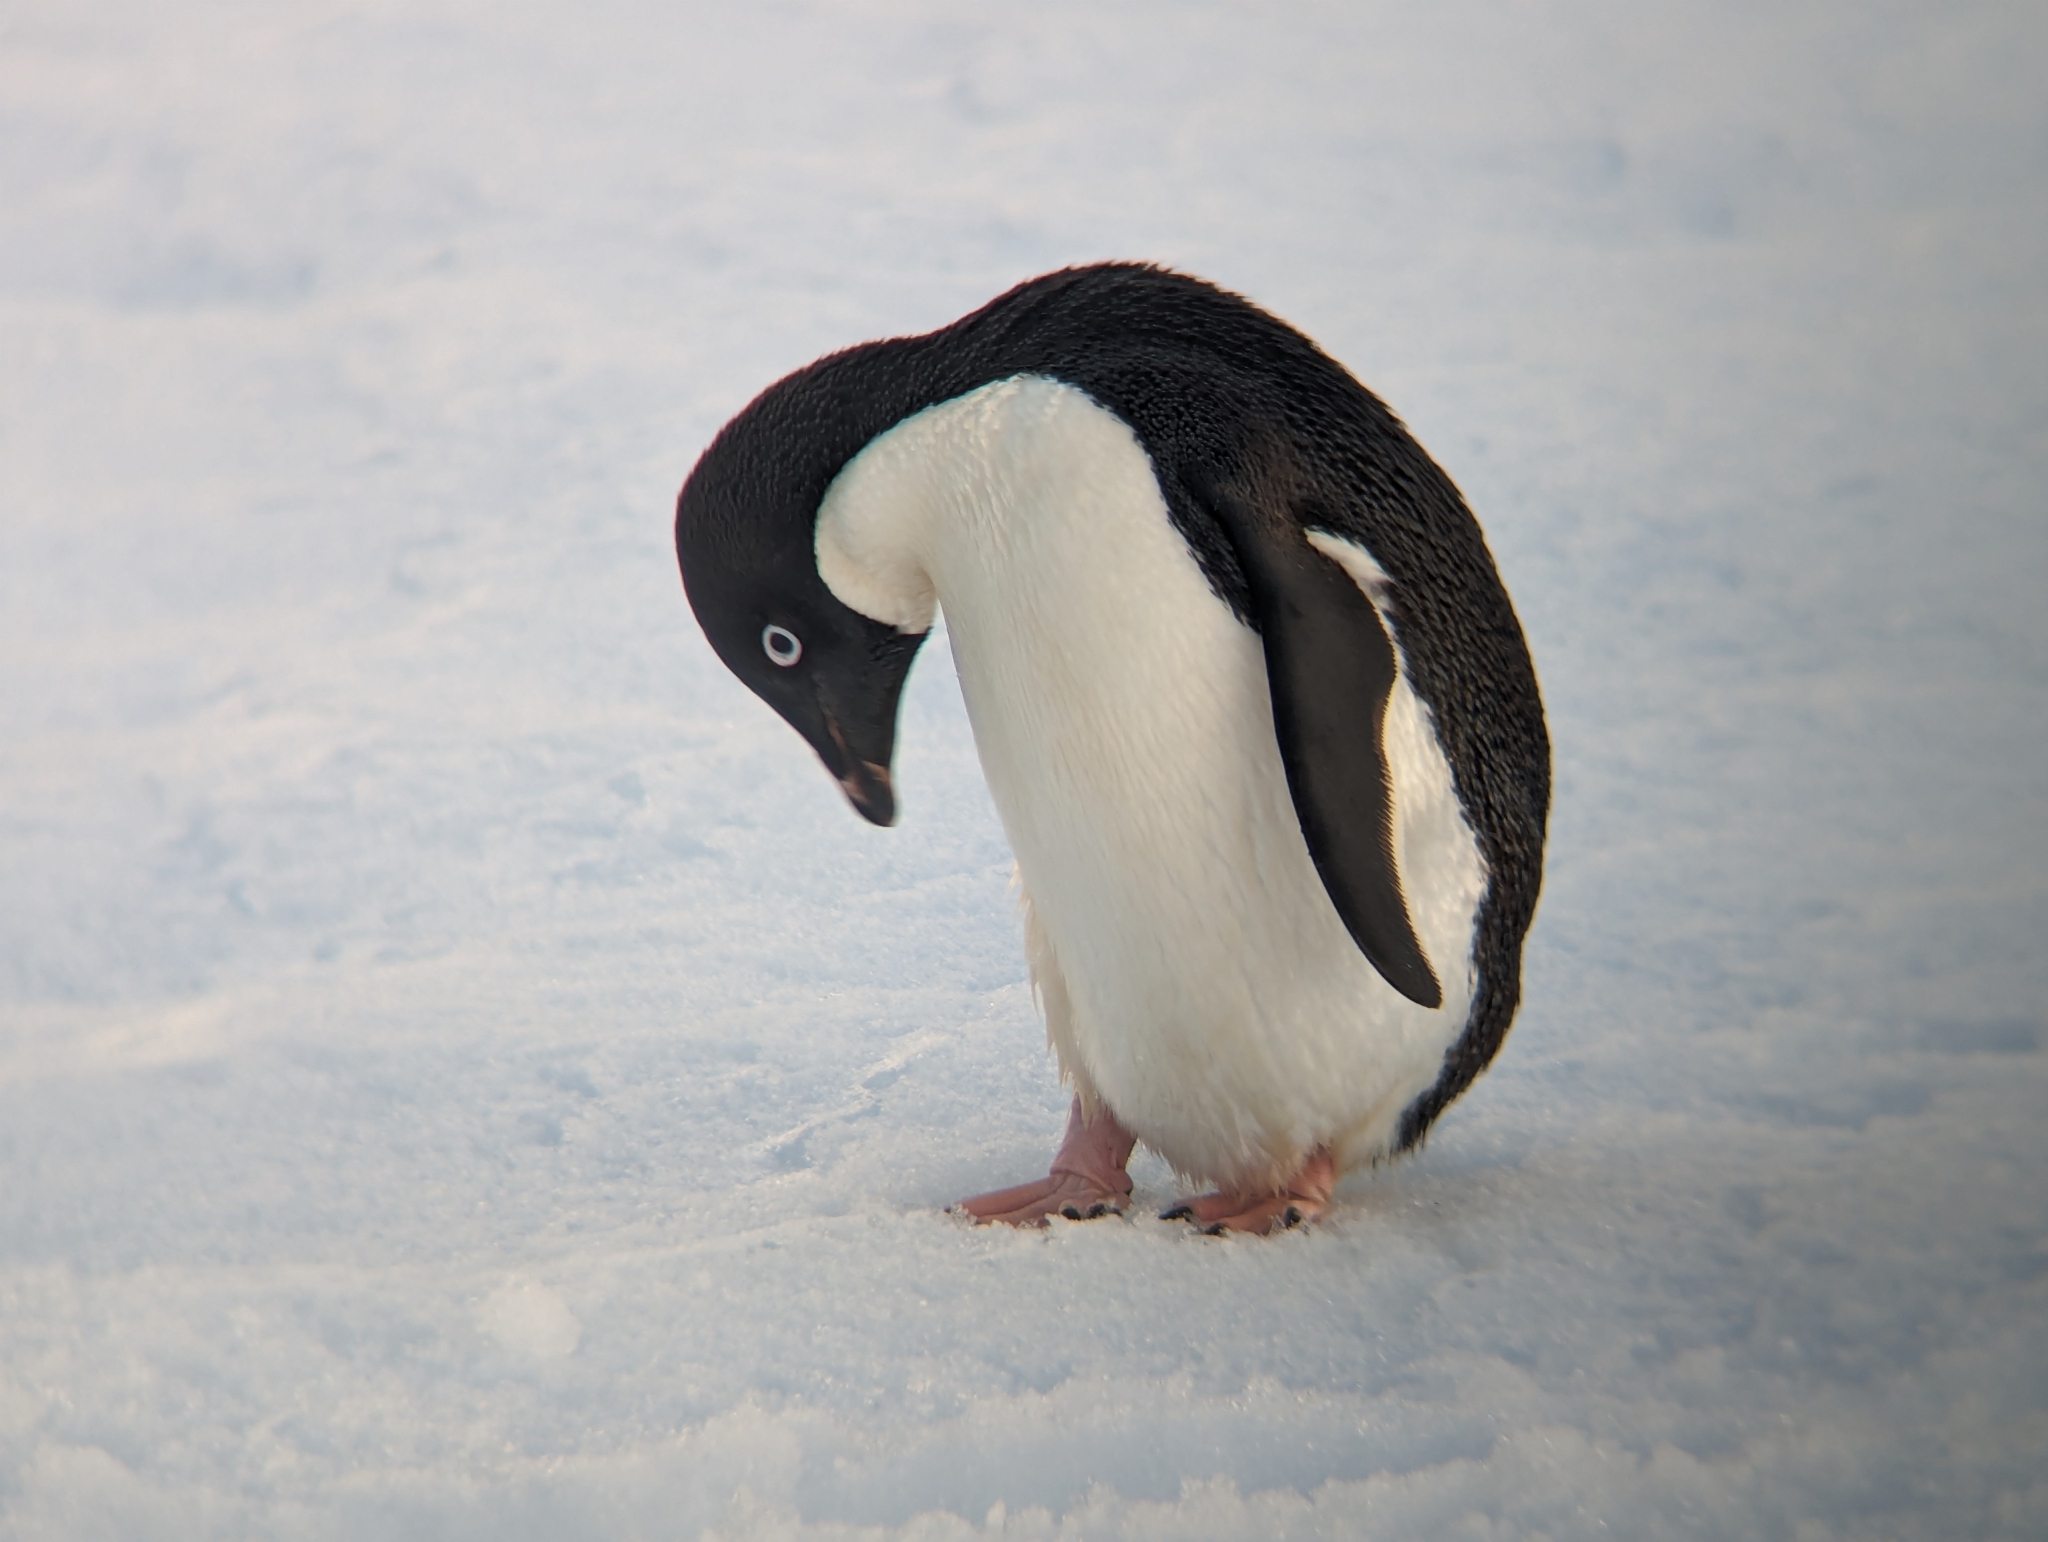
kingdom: Animalia
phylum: Chordata
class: Aves
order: Sphenisciformes
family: Spheniscidae
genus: Pygoscelis
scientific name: Pygoscelis adeliae
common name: Adelie penguin
